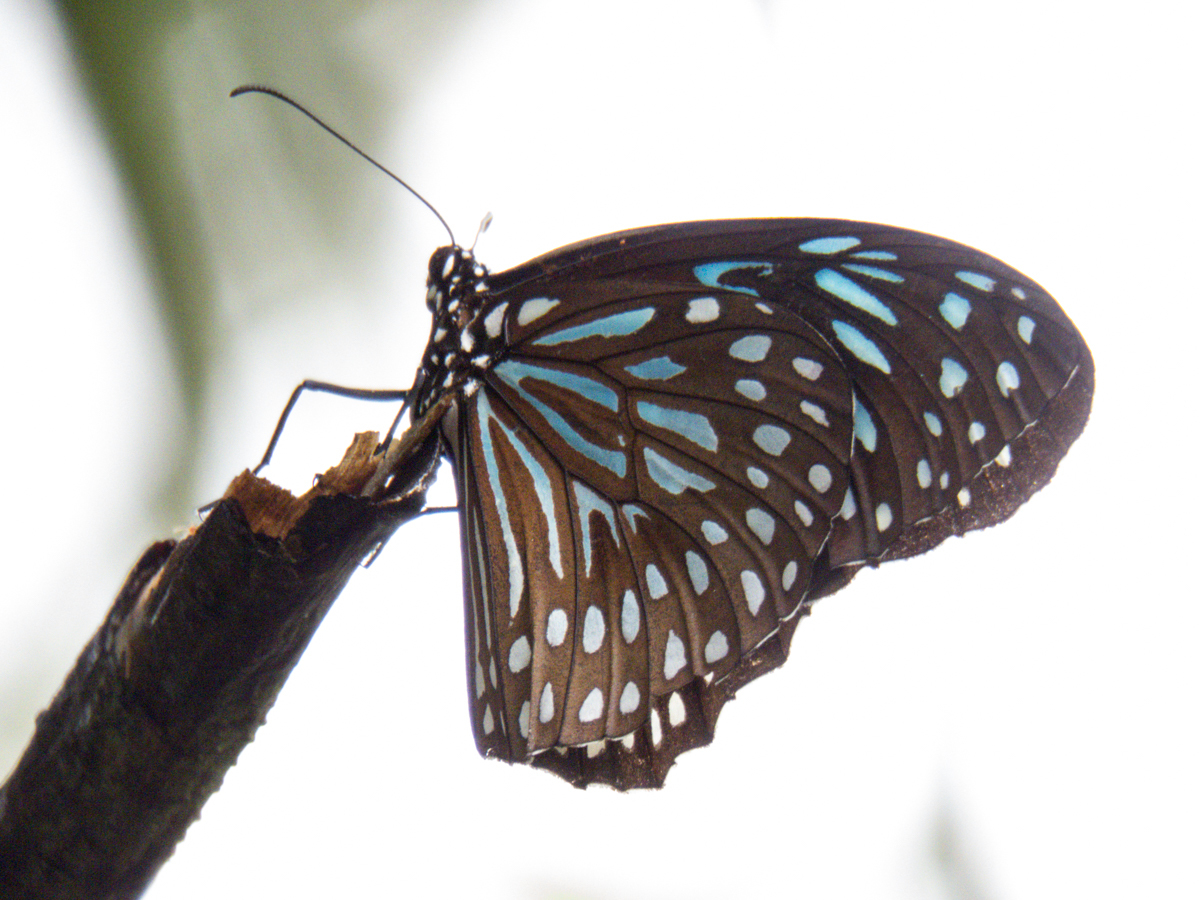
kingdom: Animalia
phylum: Arthropoda
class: Insecta
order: Lepidoptera
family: Nymphalidae
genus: Tirumala
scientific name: Tirumala septentrionis
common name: Dark blue tiger butterfly
